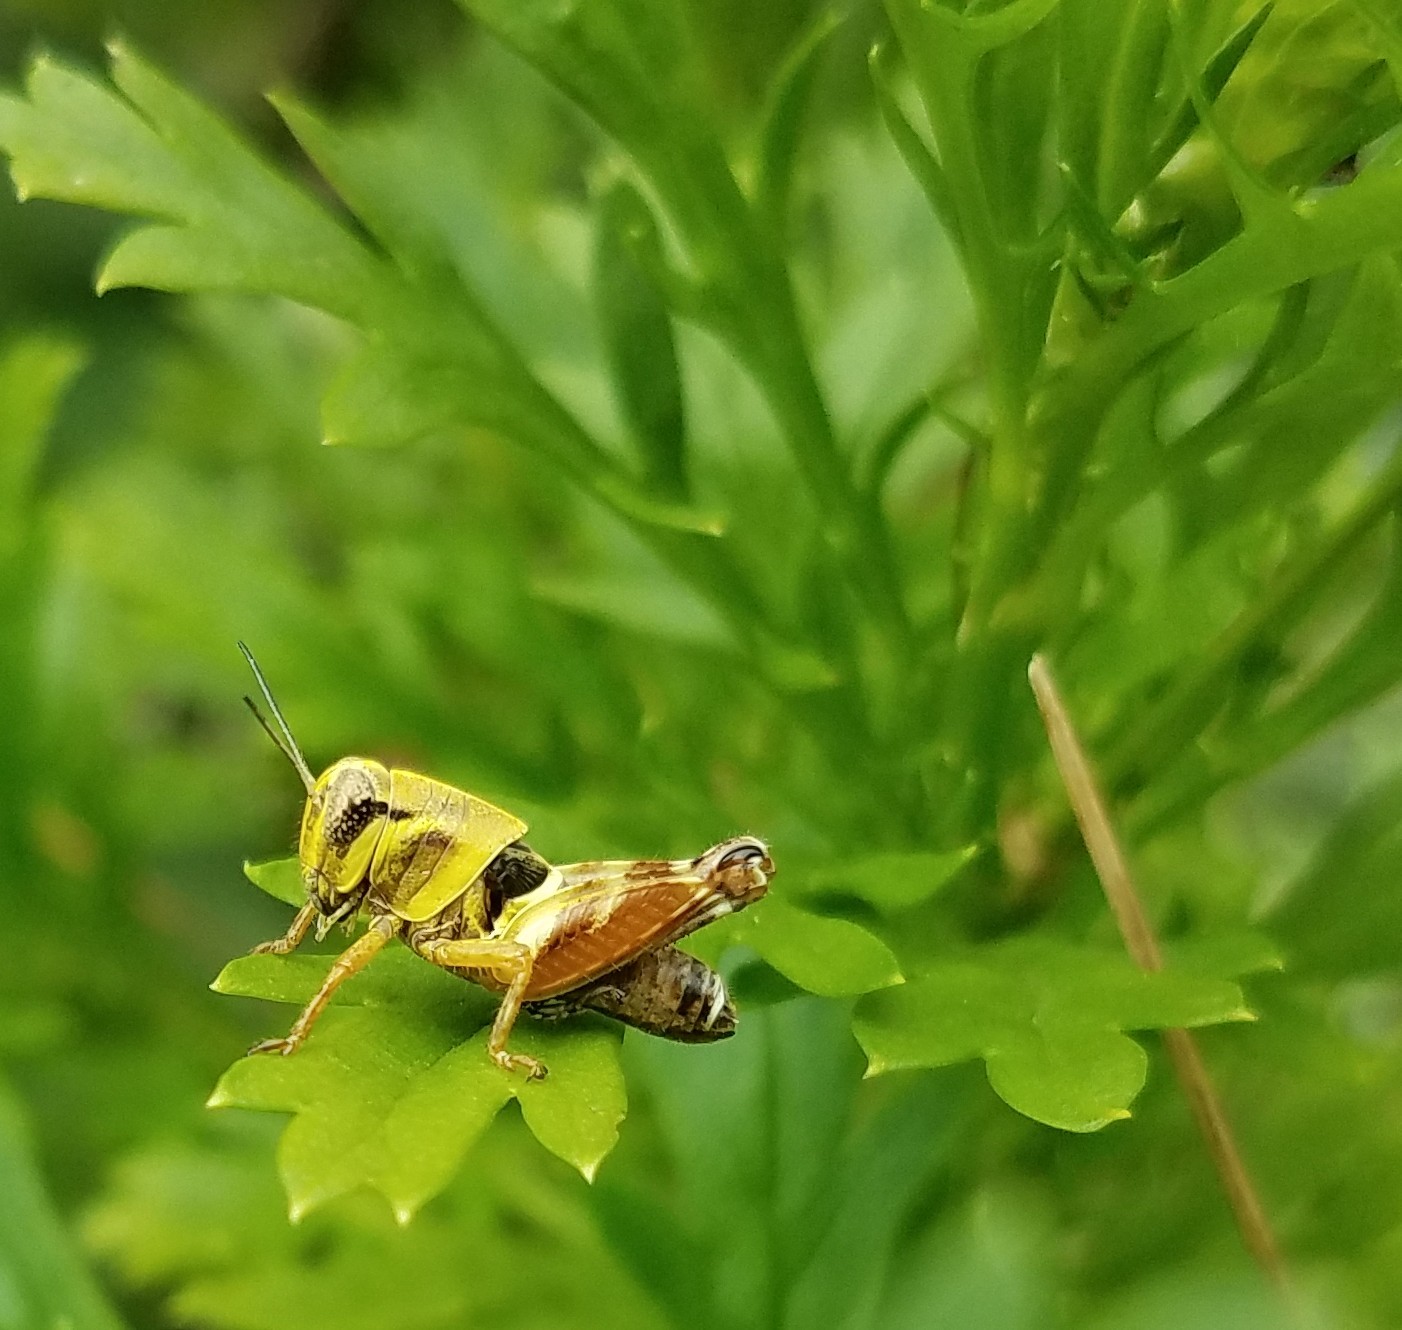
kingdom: Animalia
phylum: Arthropoda
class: Insecta
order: Orthoptera
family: Acrididae
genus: Aidemona
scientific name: Aidemona azteca
